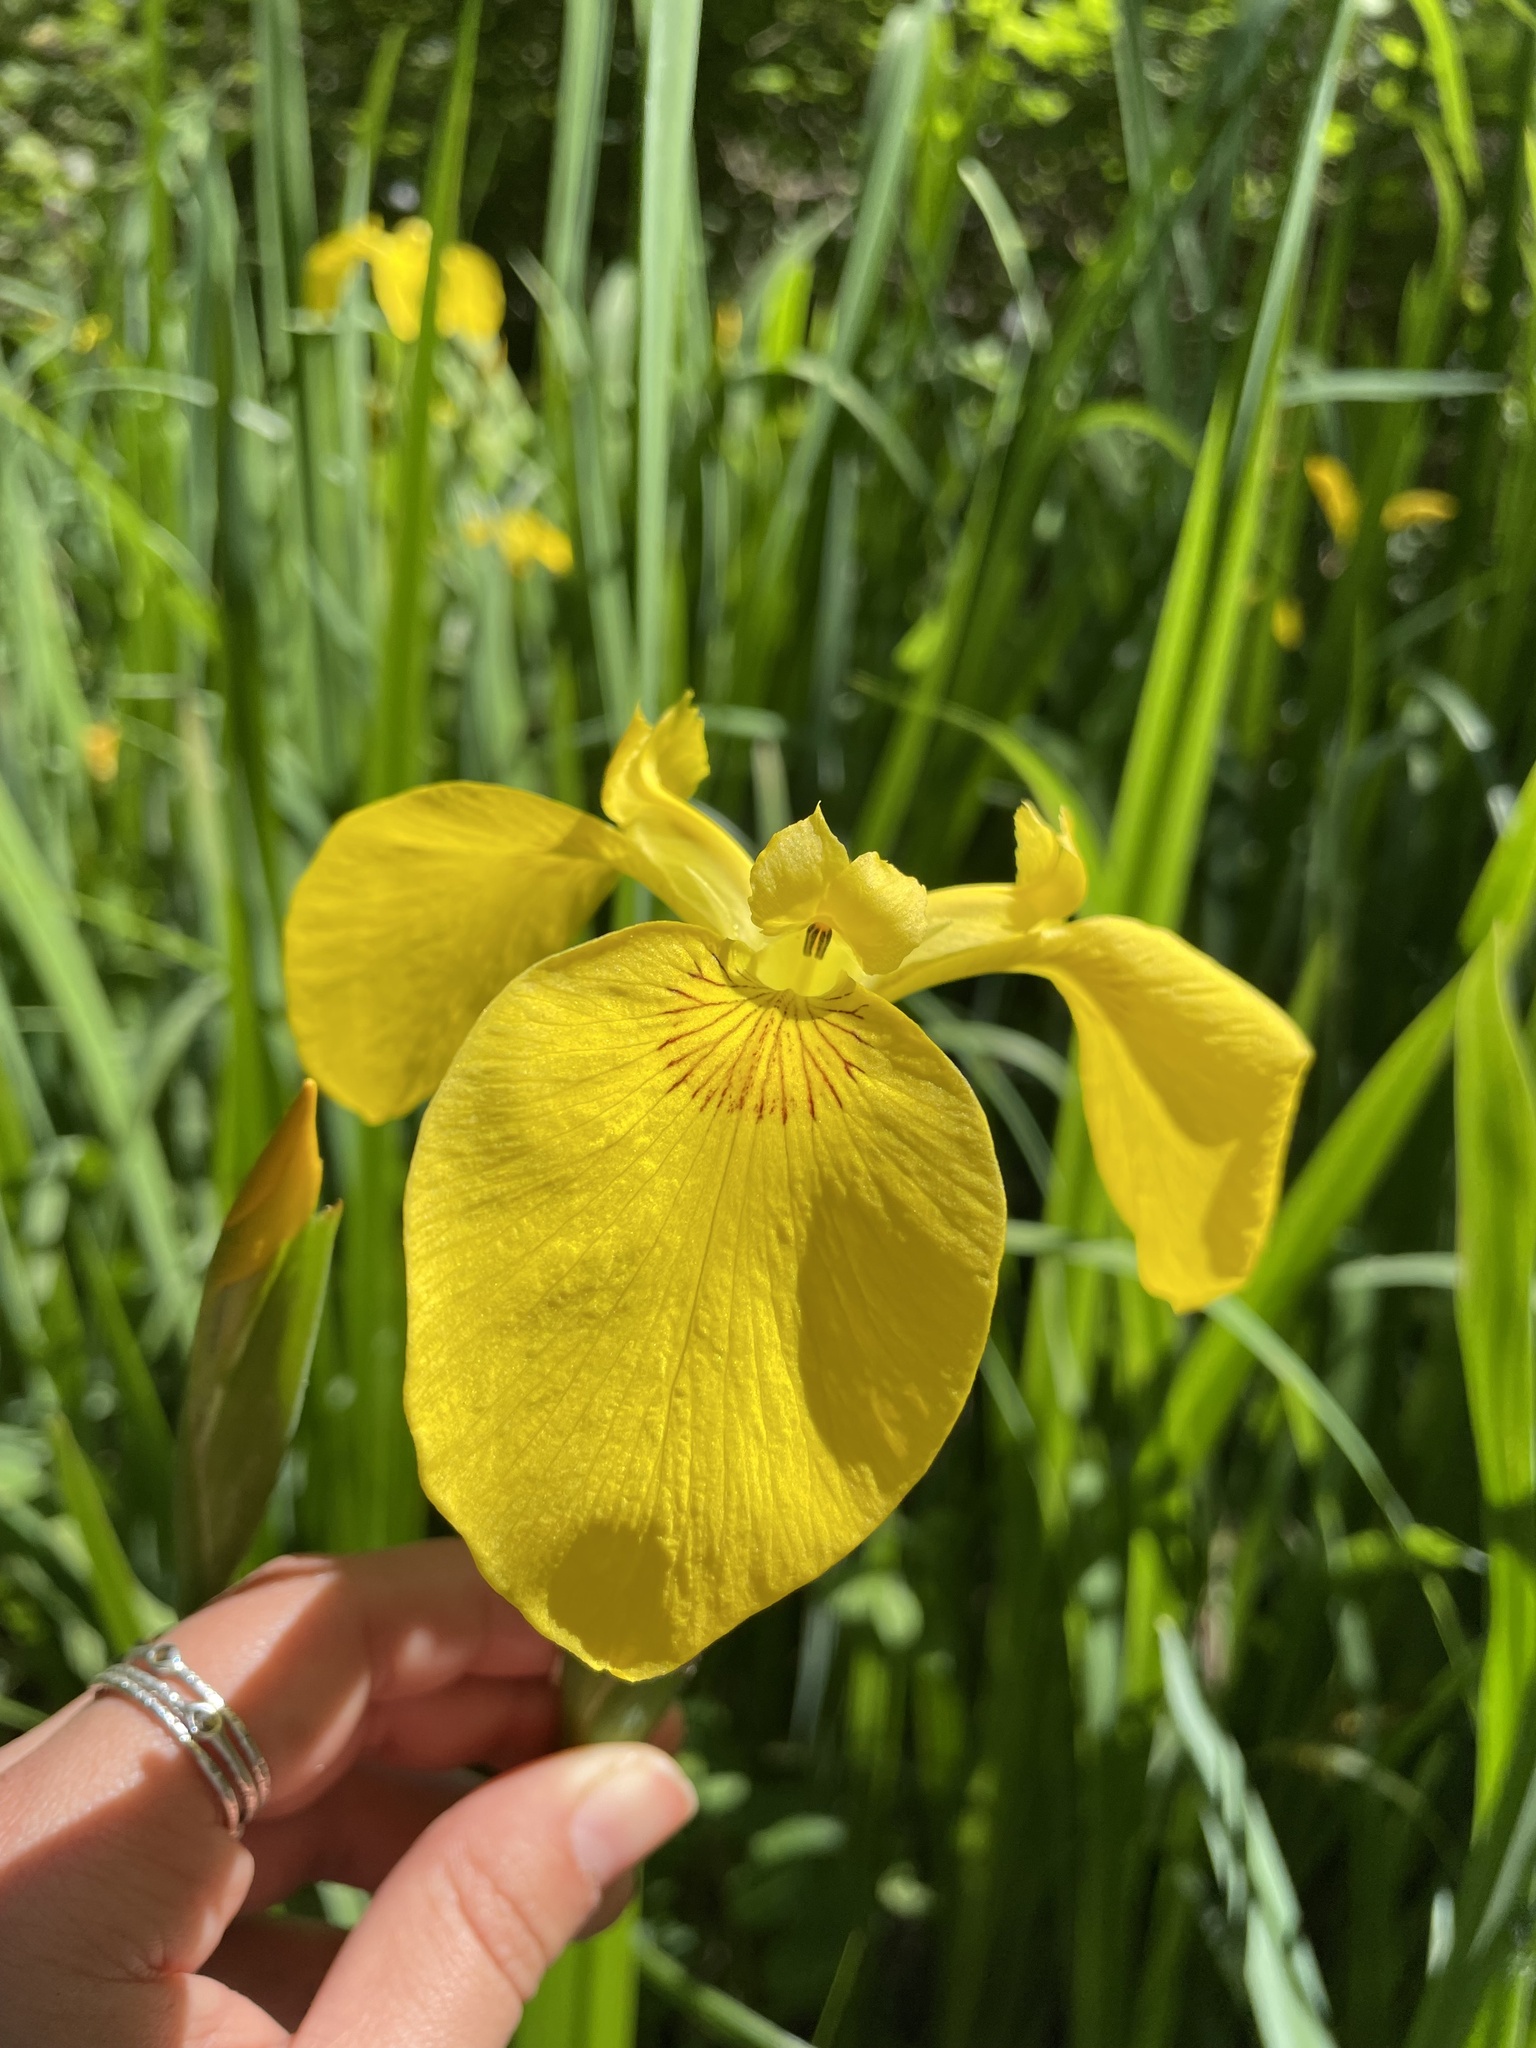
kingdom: Plantae
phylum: Tracheophyta
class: Liliopsida
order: Asparagales
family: Iridaceae
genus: Iris
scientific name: Iris pseudacorus
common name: Yellow flag
